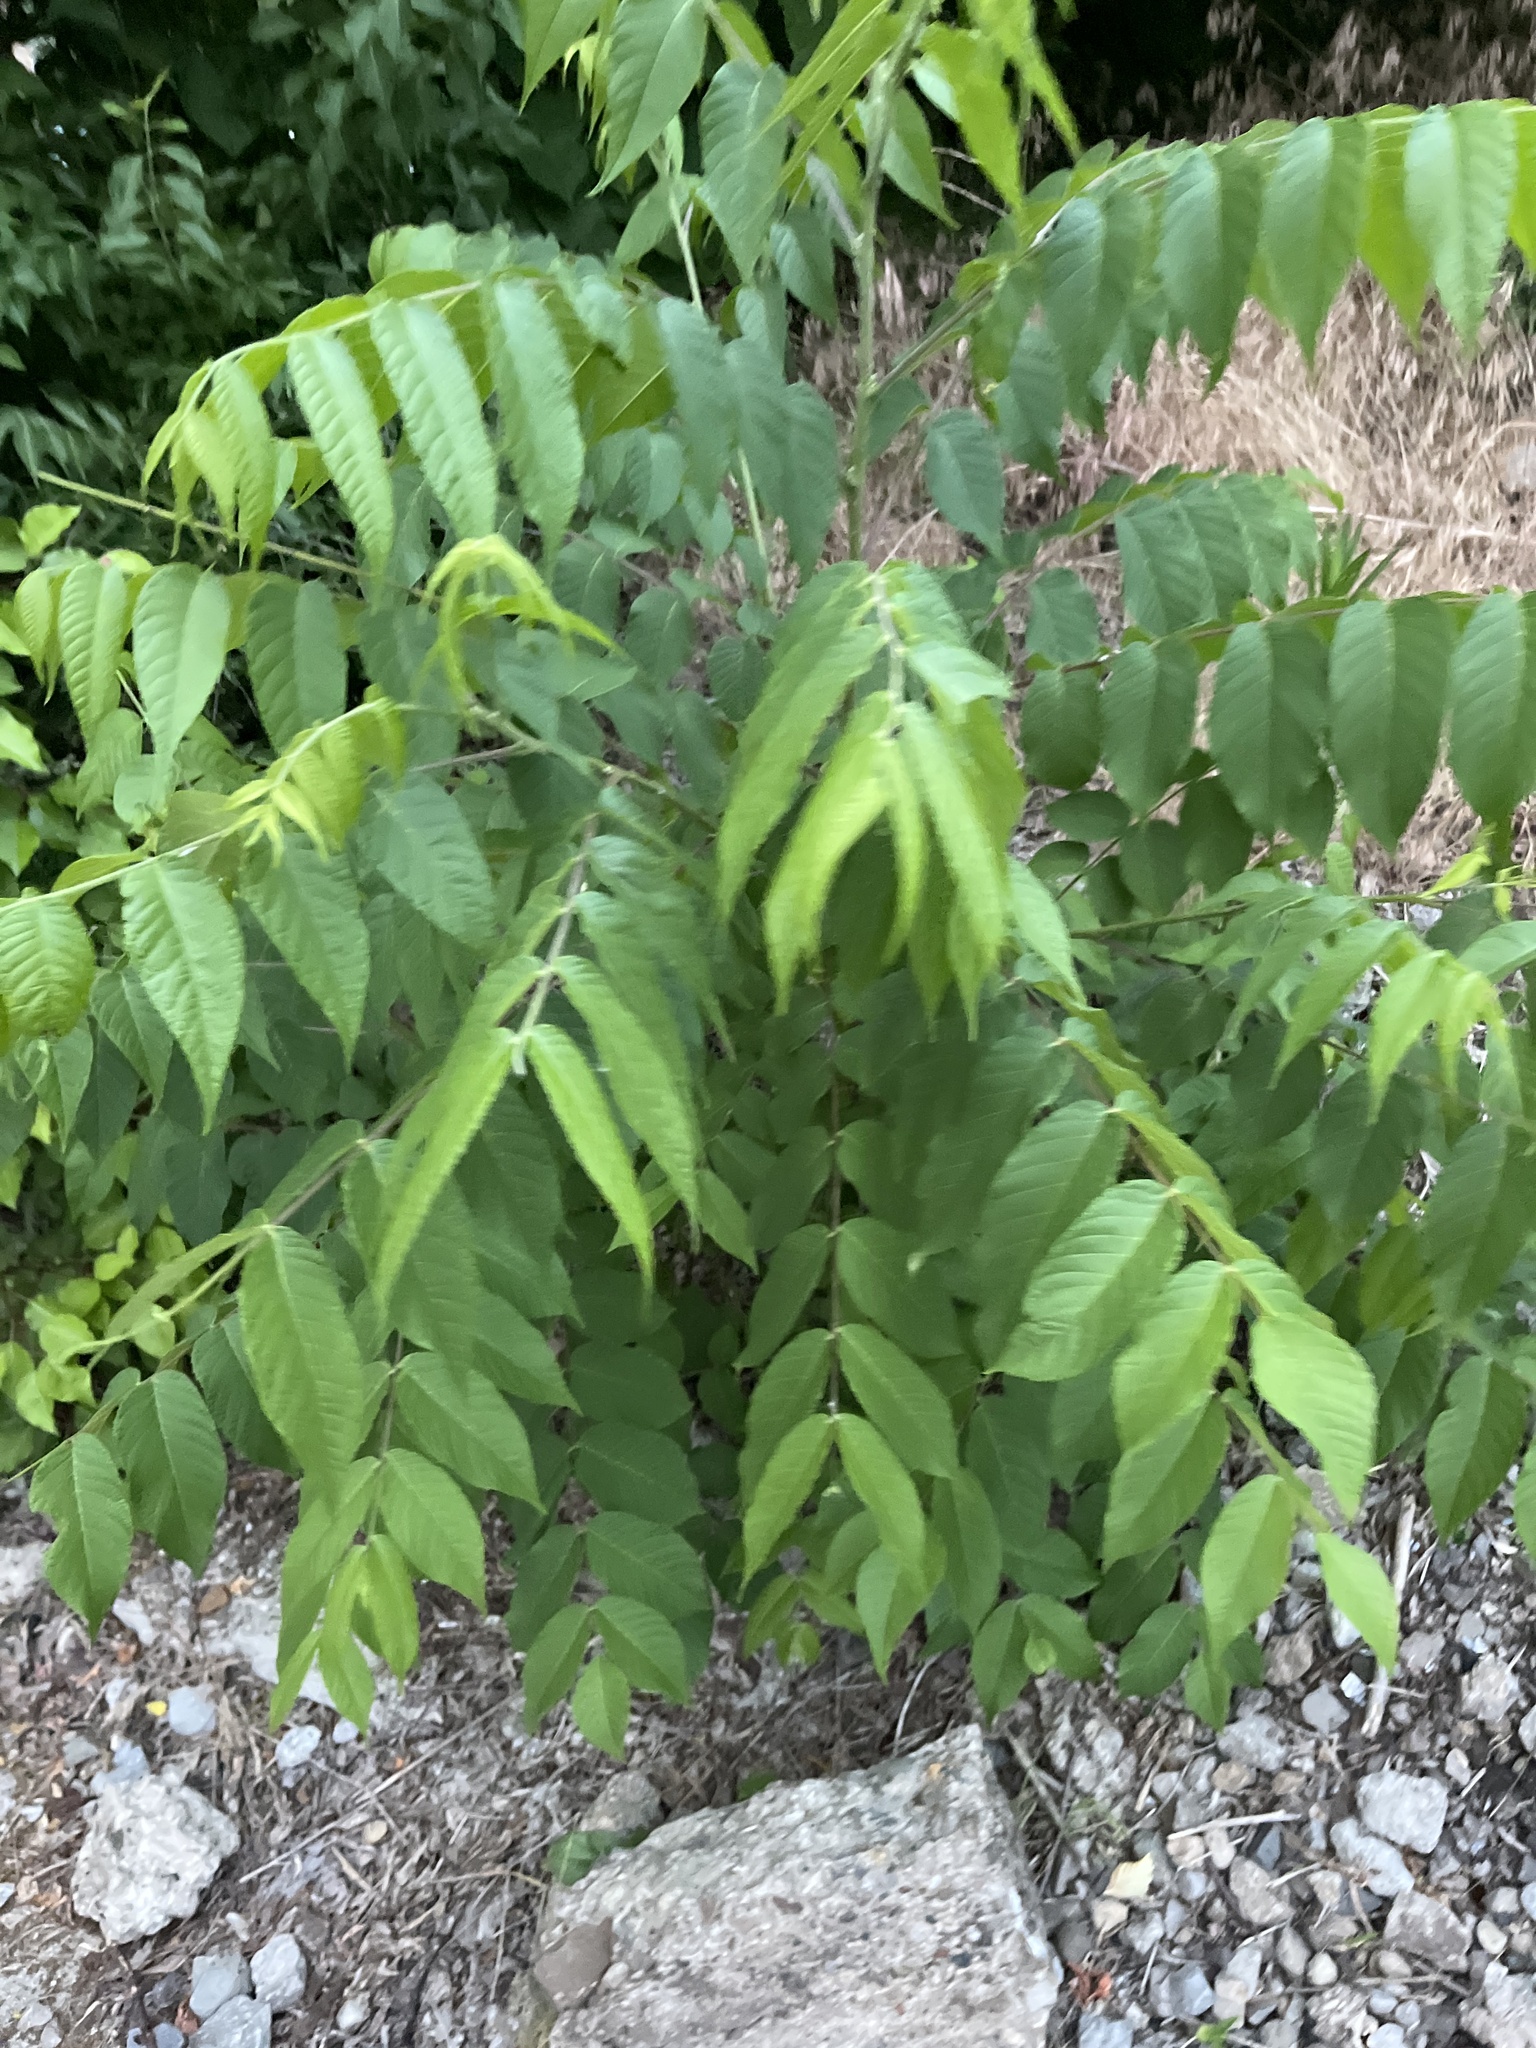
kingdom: Plantae
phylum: Tracheophyta
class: Magnoliopsida
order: Fagales
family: Juglandaceae
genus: Juglans
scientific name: Juglans nigra
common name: Black walnut
